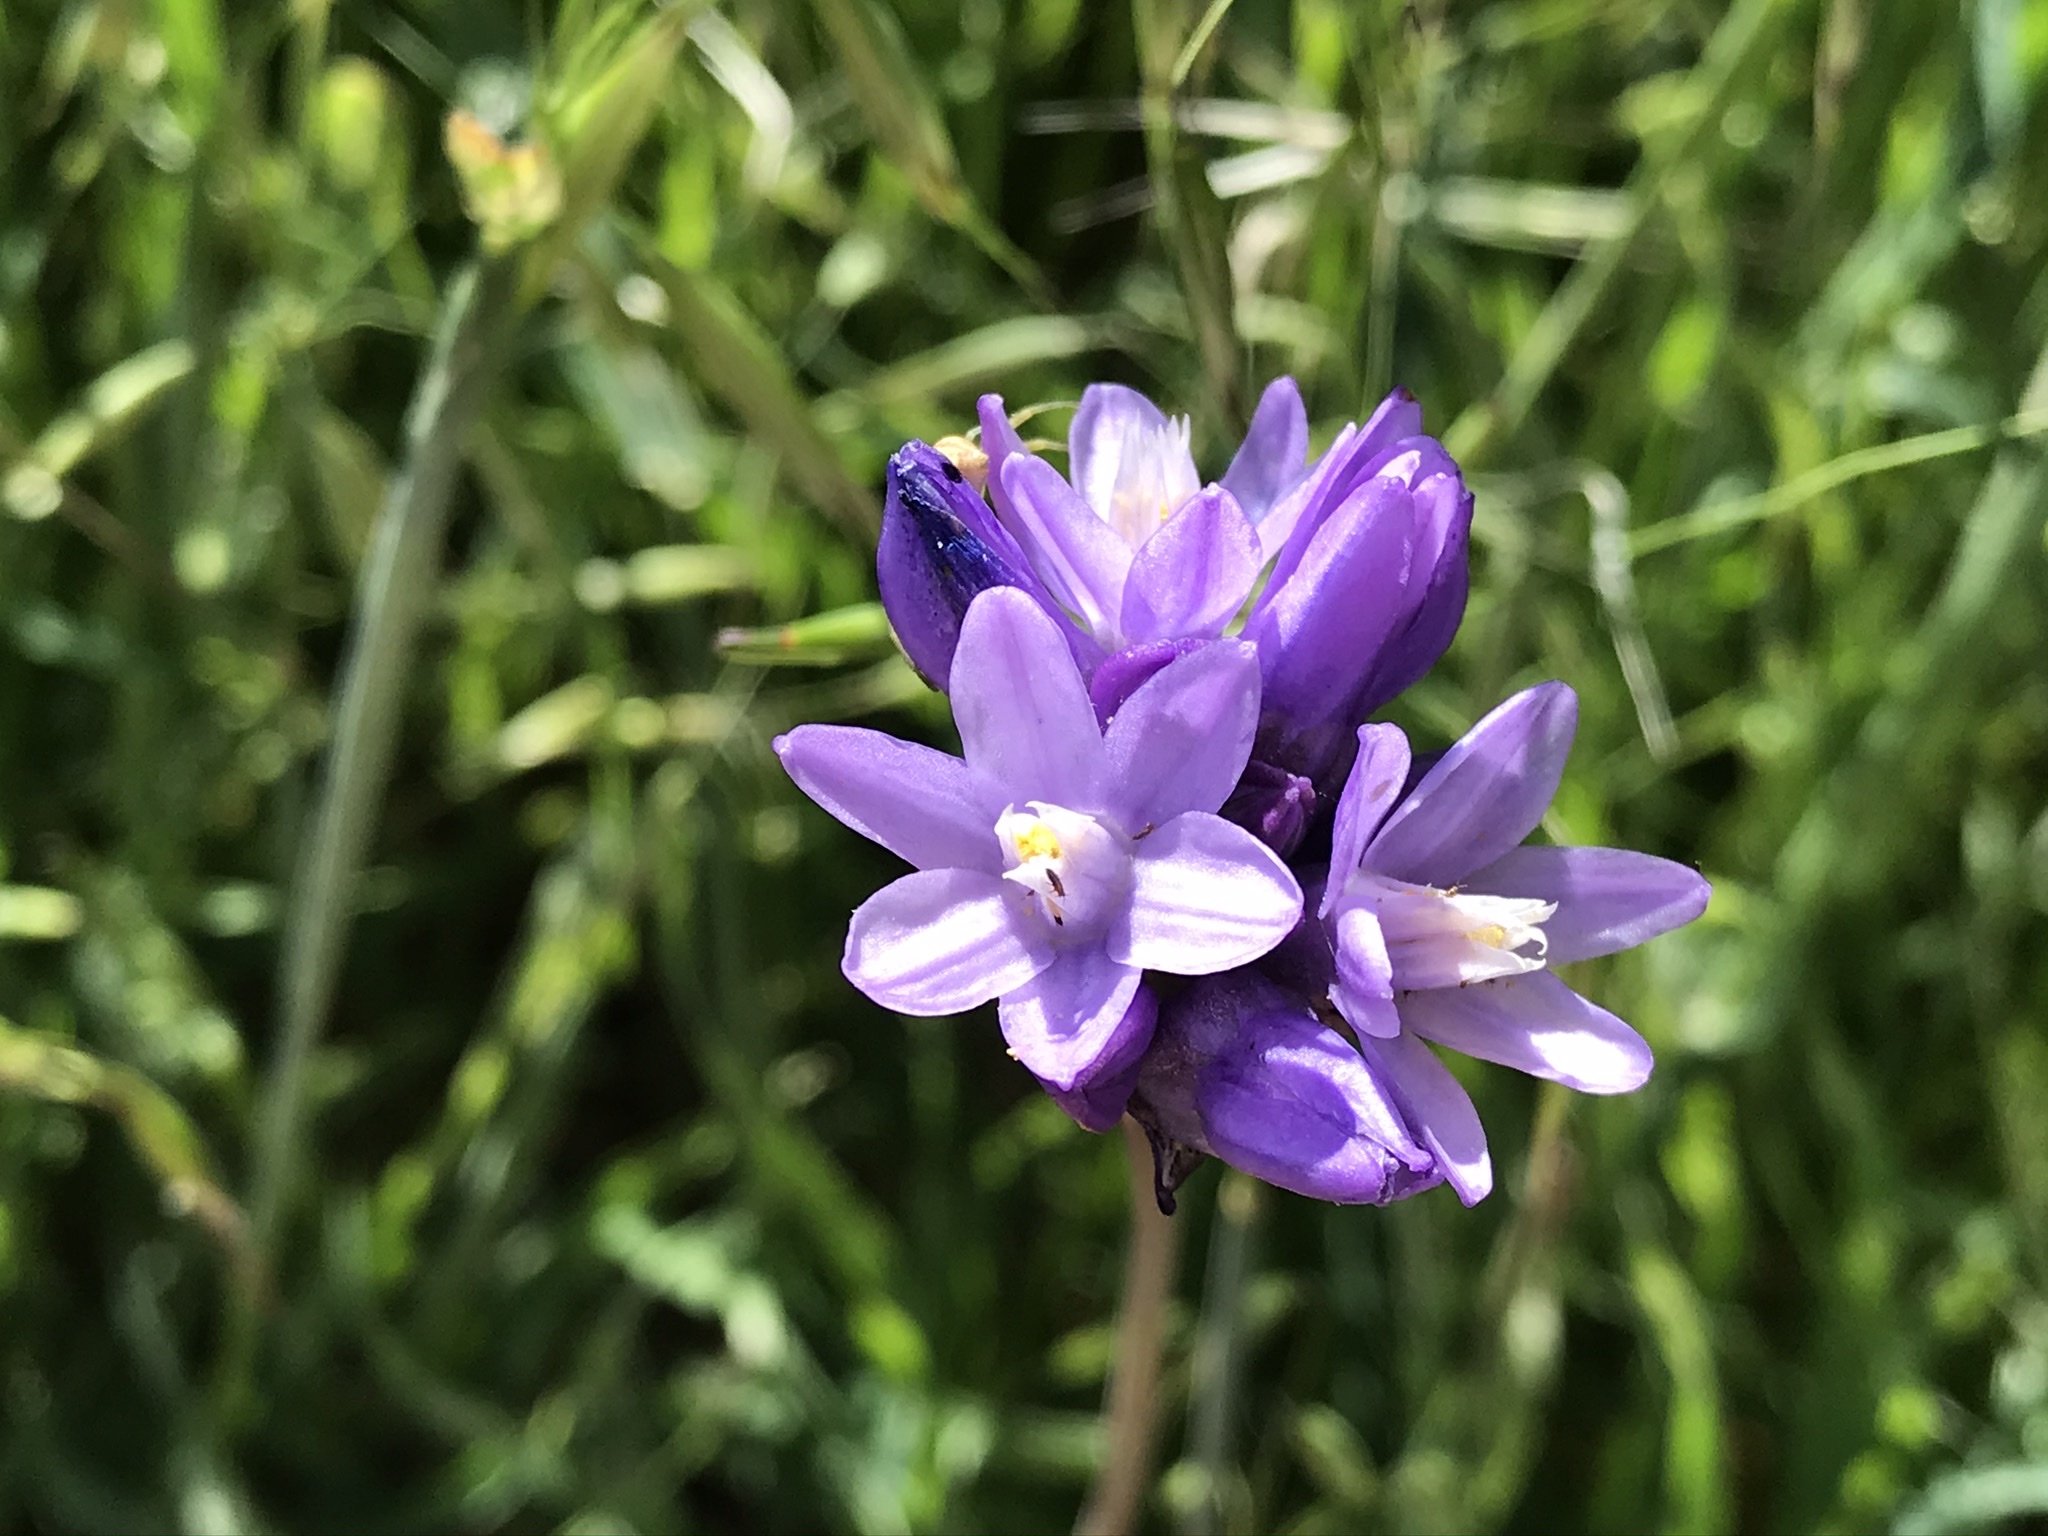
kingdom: Plantae
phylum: Tracheophyta
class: Liliopsida
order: Asparagales
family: Asparagaceae
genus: Dipterostemon
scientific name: Dipterostemon capitatus
